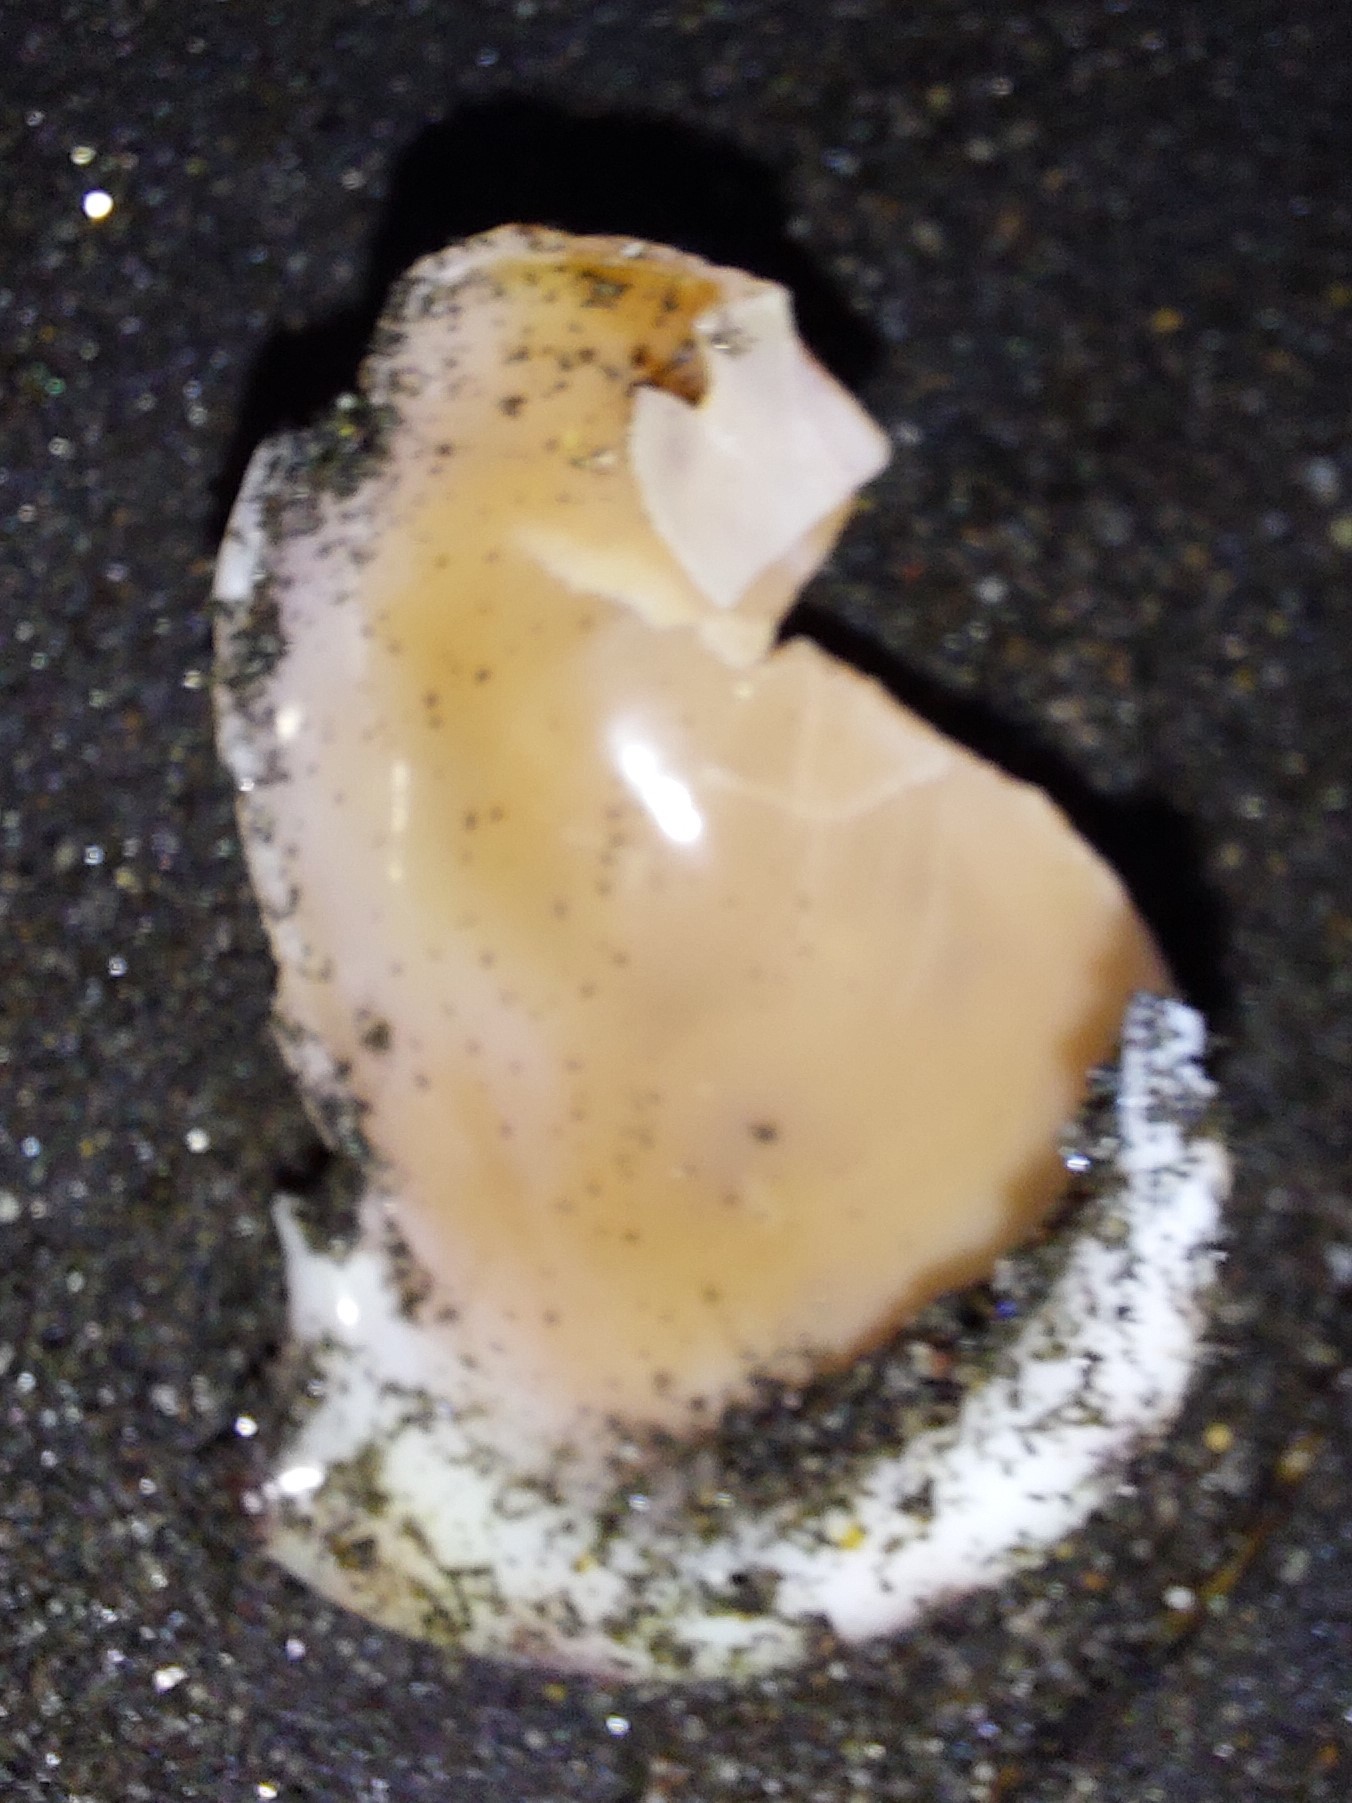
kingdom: Animalia
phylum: Mollusca
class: Gastropoda
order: Littorinimorpha
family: Cassidae
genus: Semicassis
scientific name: Semicassis pyrum
